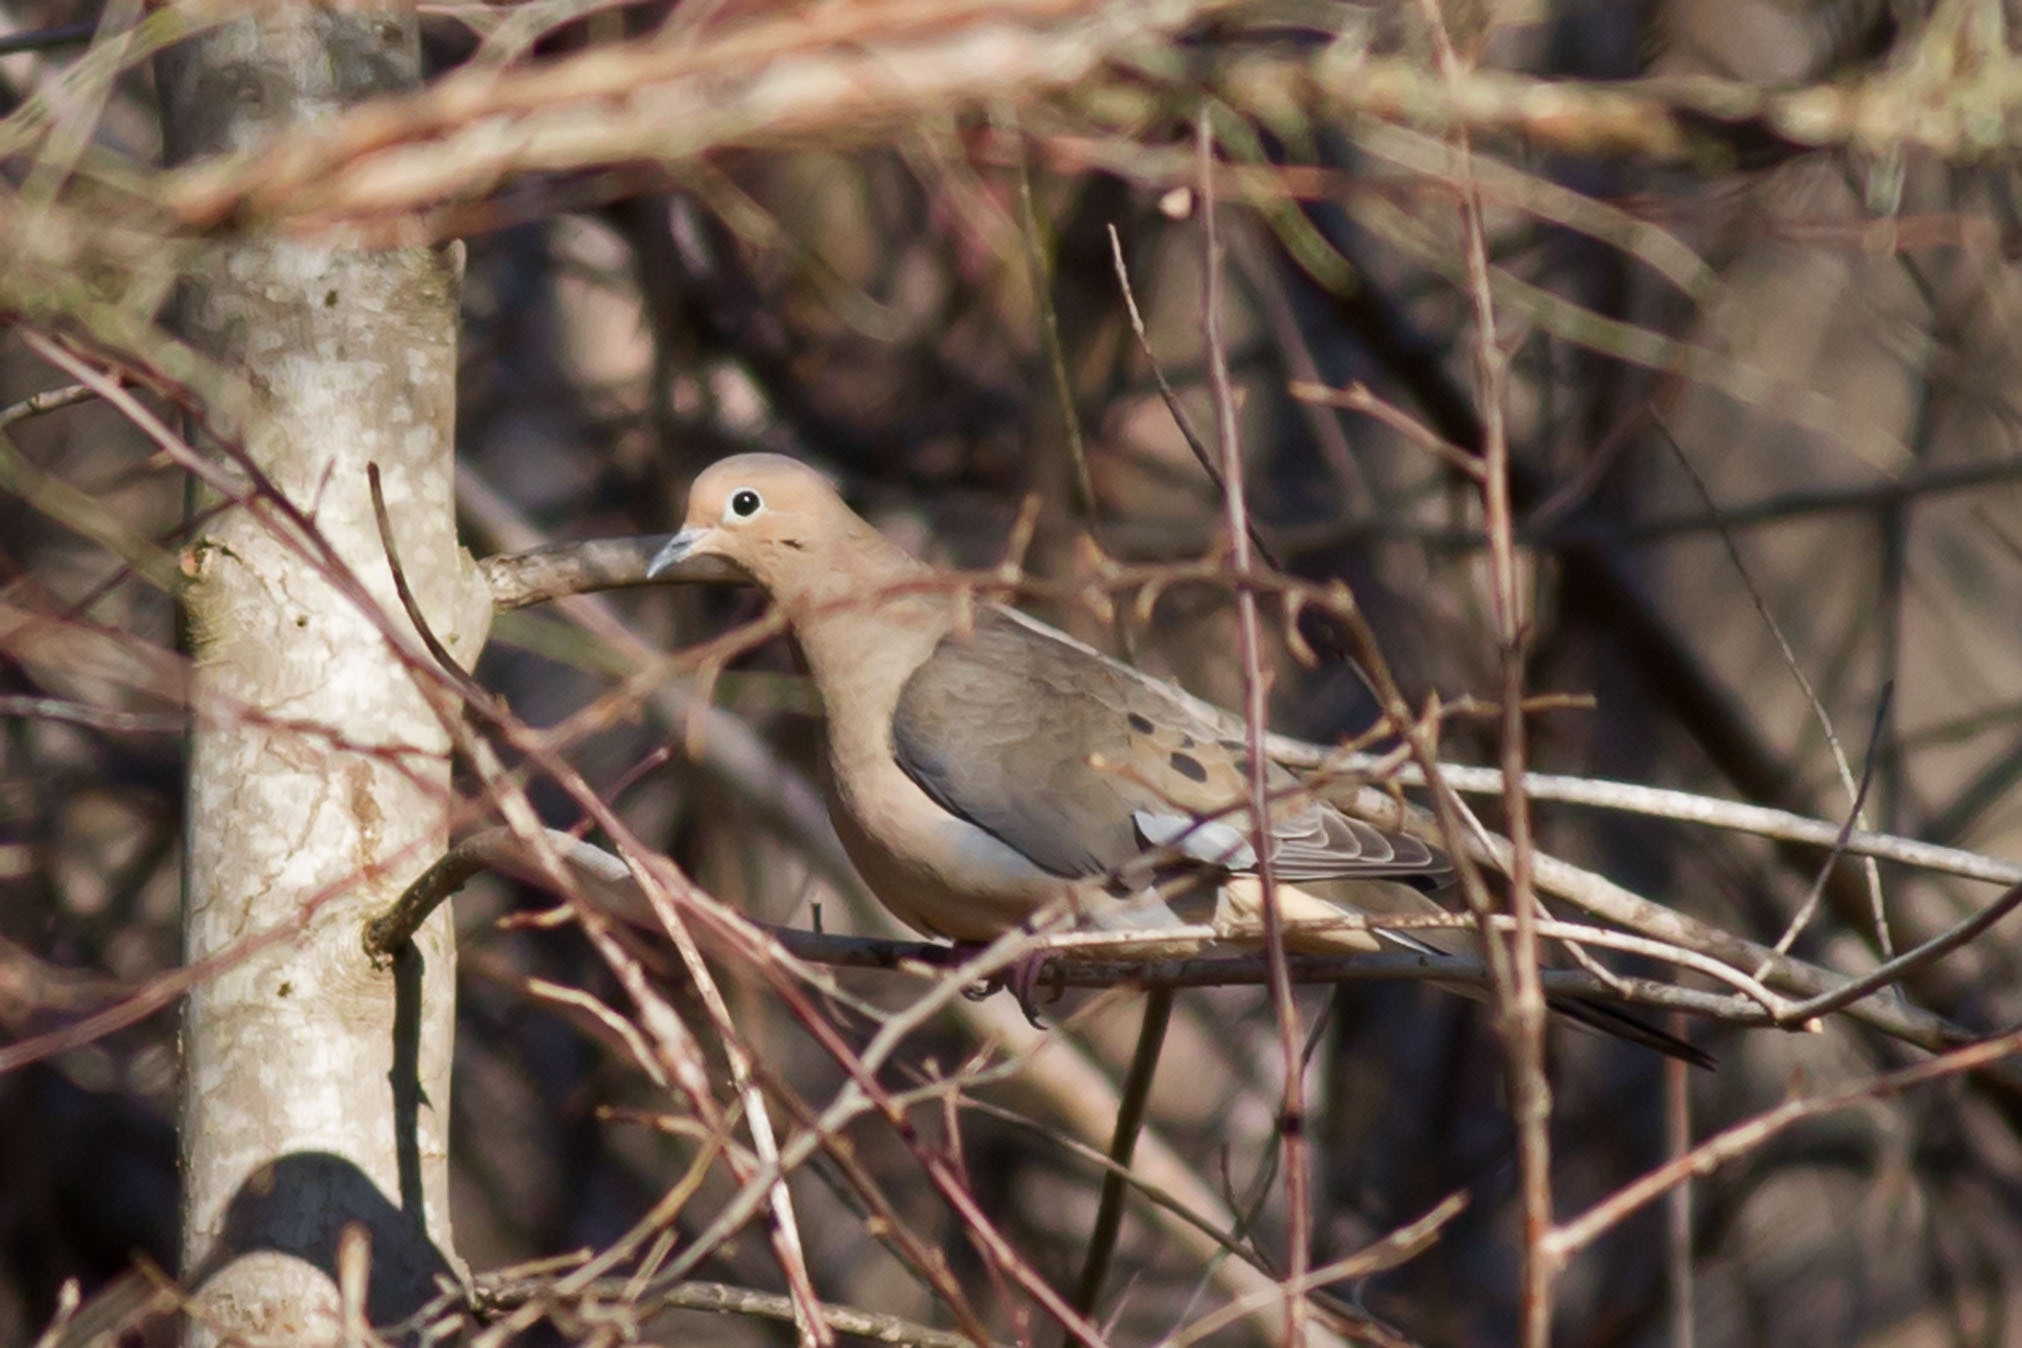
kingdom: Animalia
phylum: Chordata
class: Aves
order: Columbiformes
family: Columbidae
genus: Zenaida
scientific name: Zenaida macroura
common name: Mourning dove
